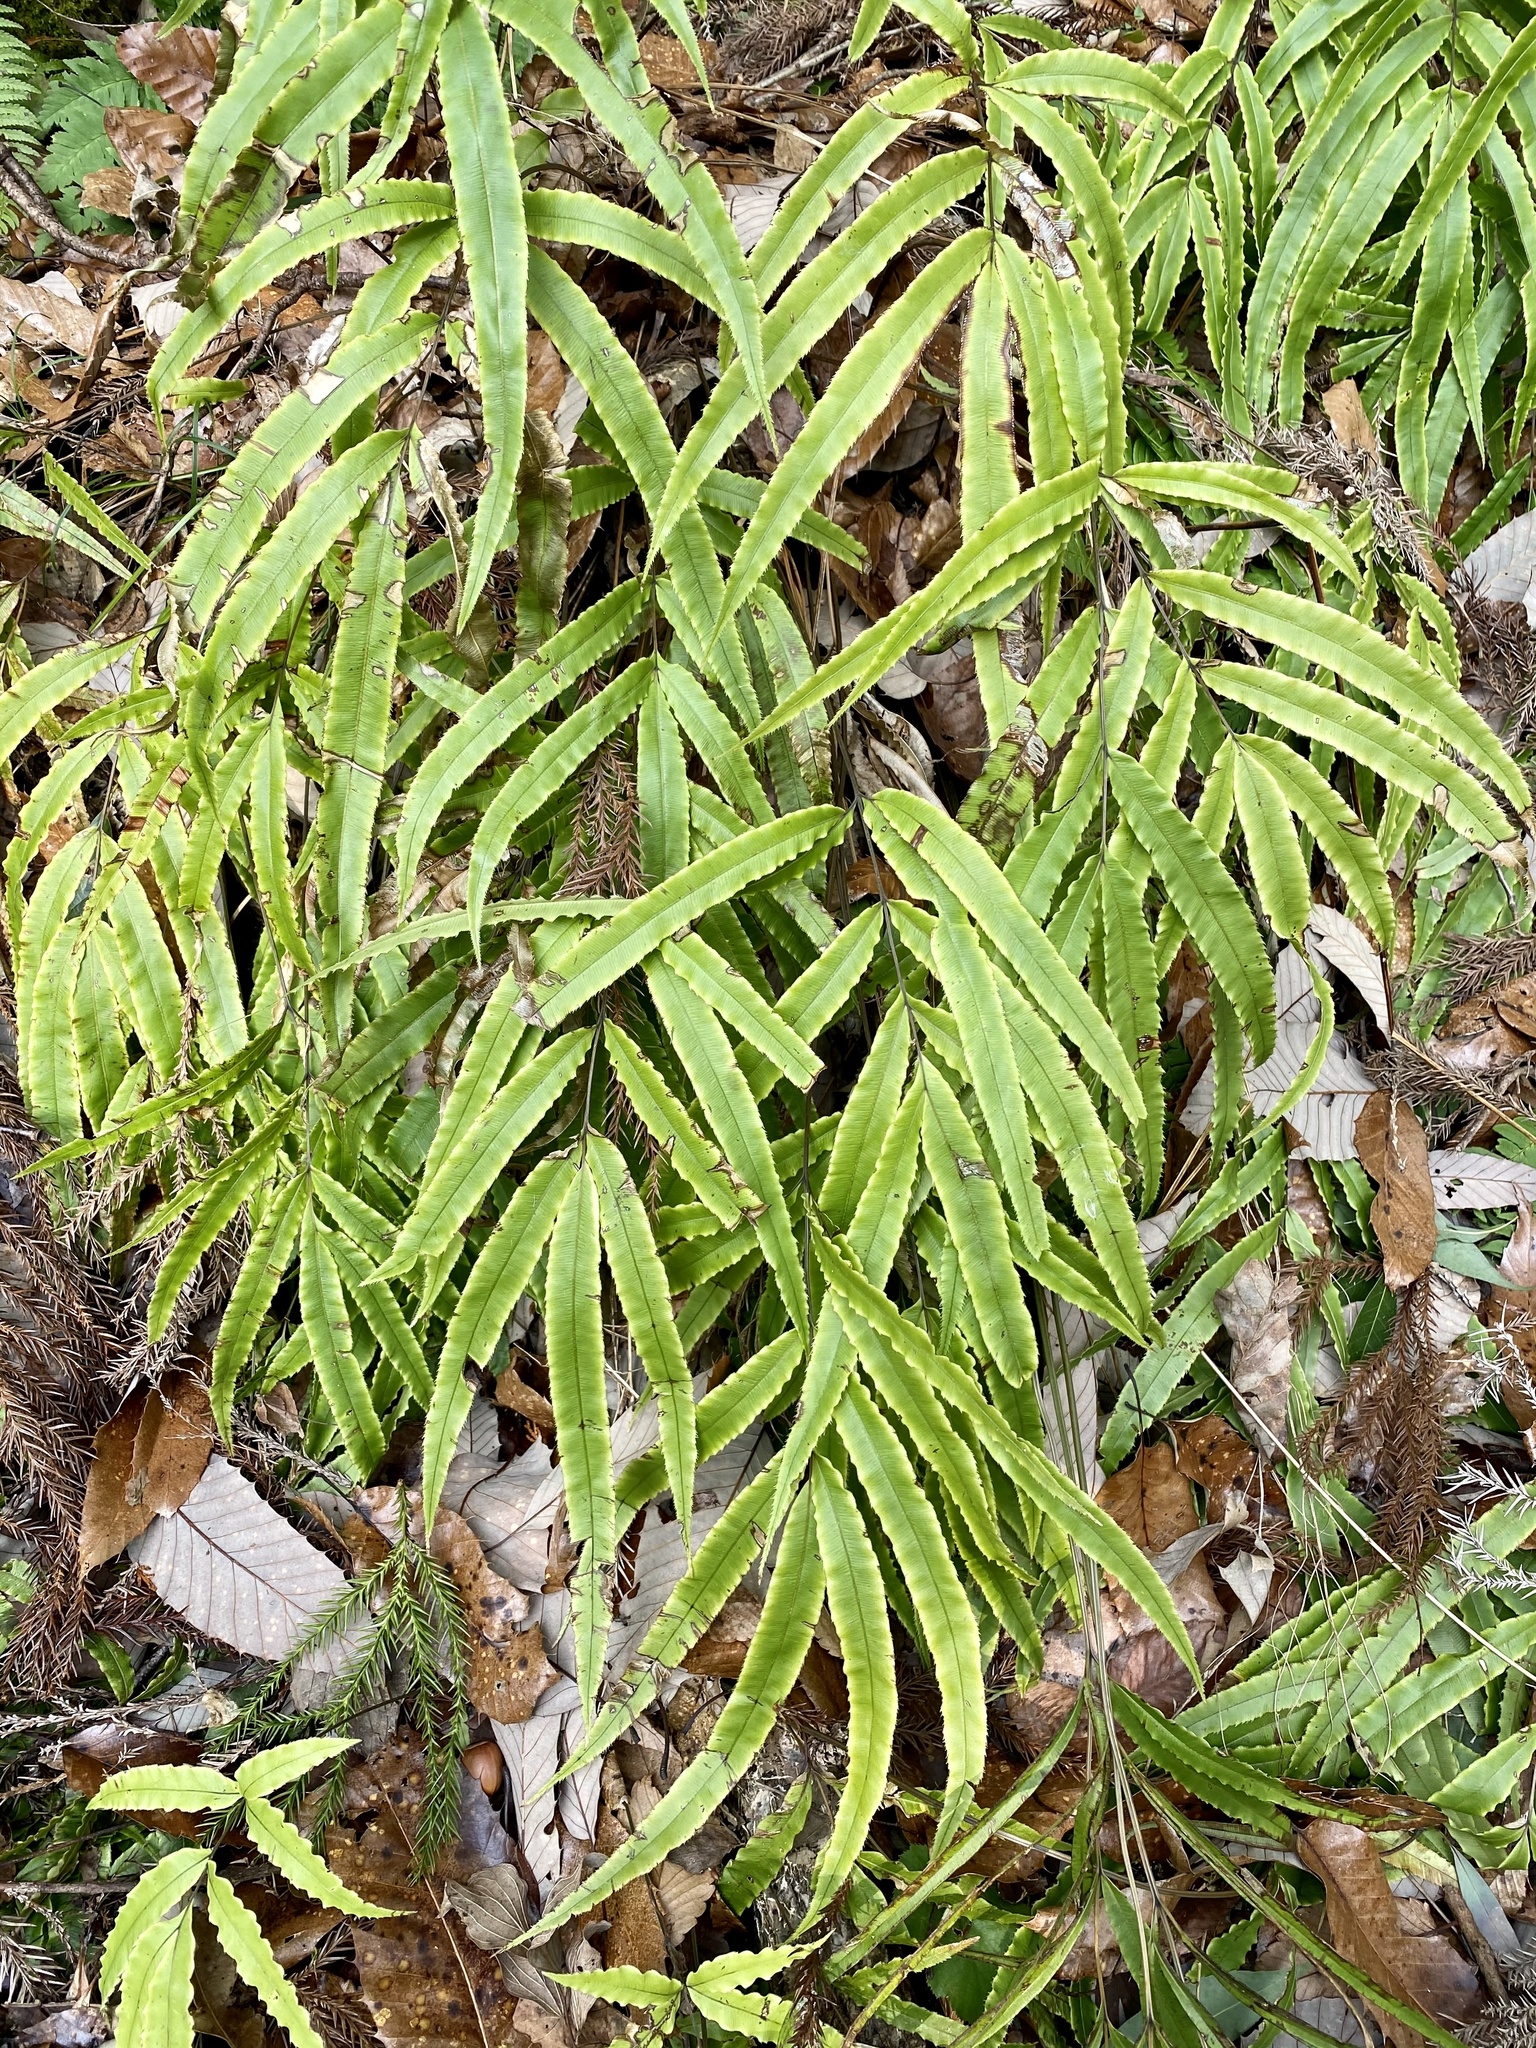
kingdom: Plantae
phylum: Tracheophyta
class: Polypodiopsida
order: Polypodiales
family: Pteridaceae
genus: Pteris
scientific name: Pteris cretica
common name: Ribbon fern
